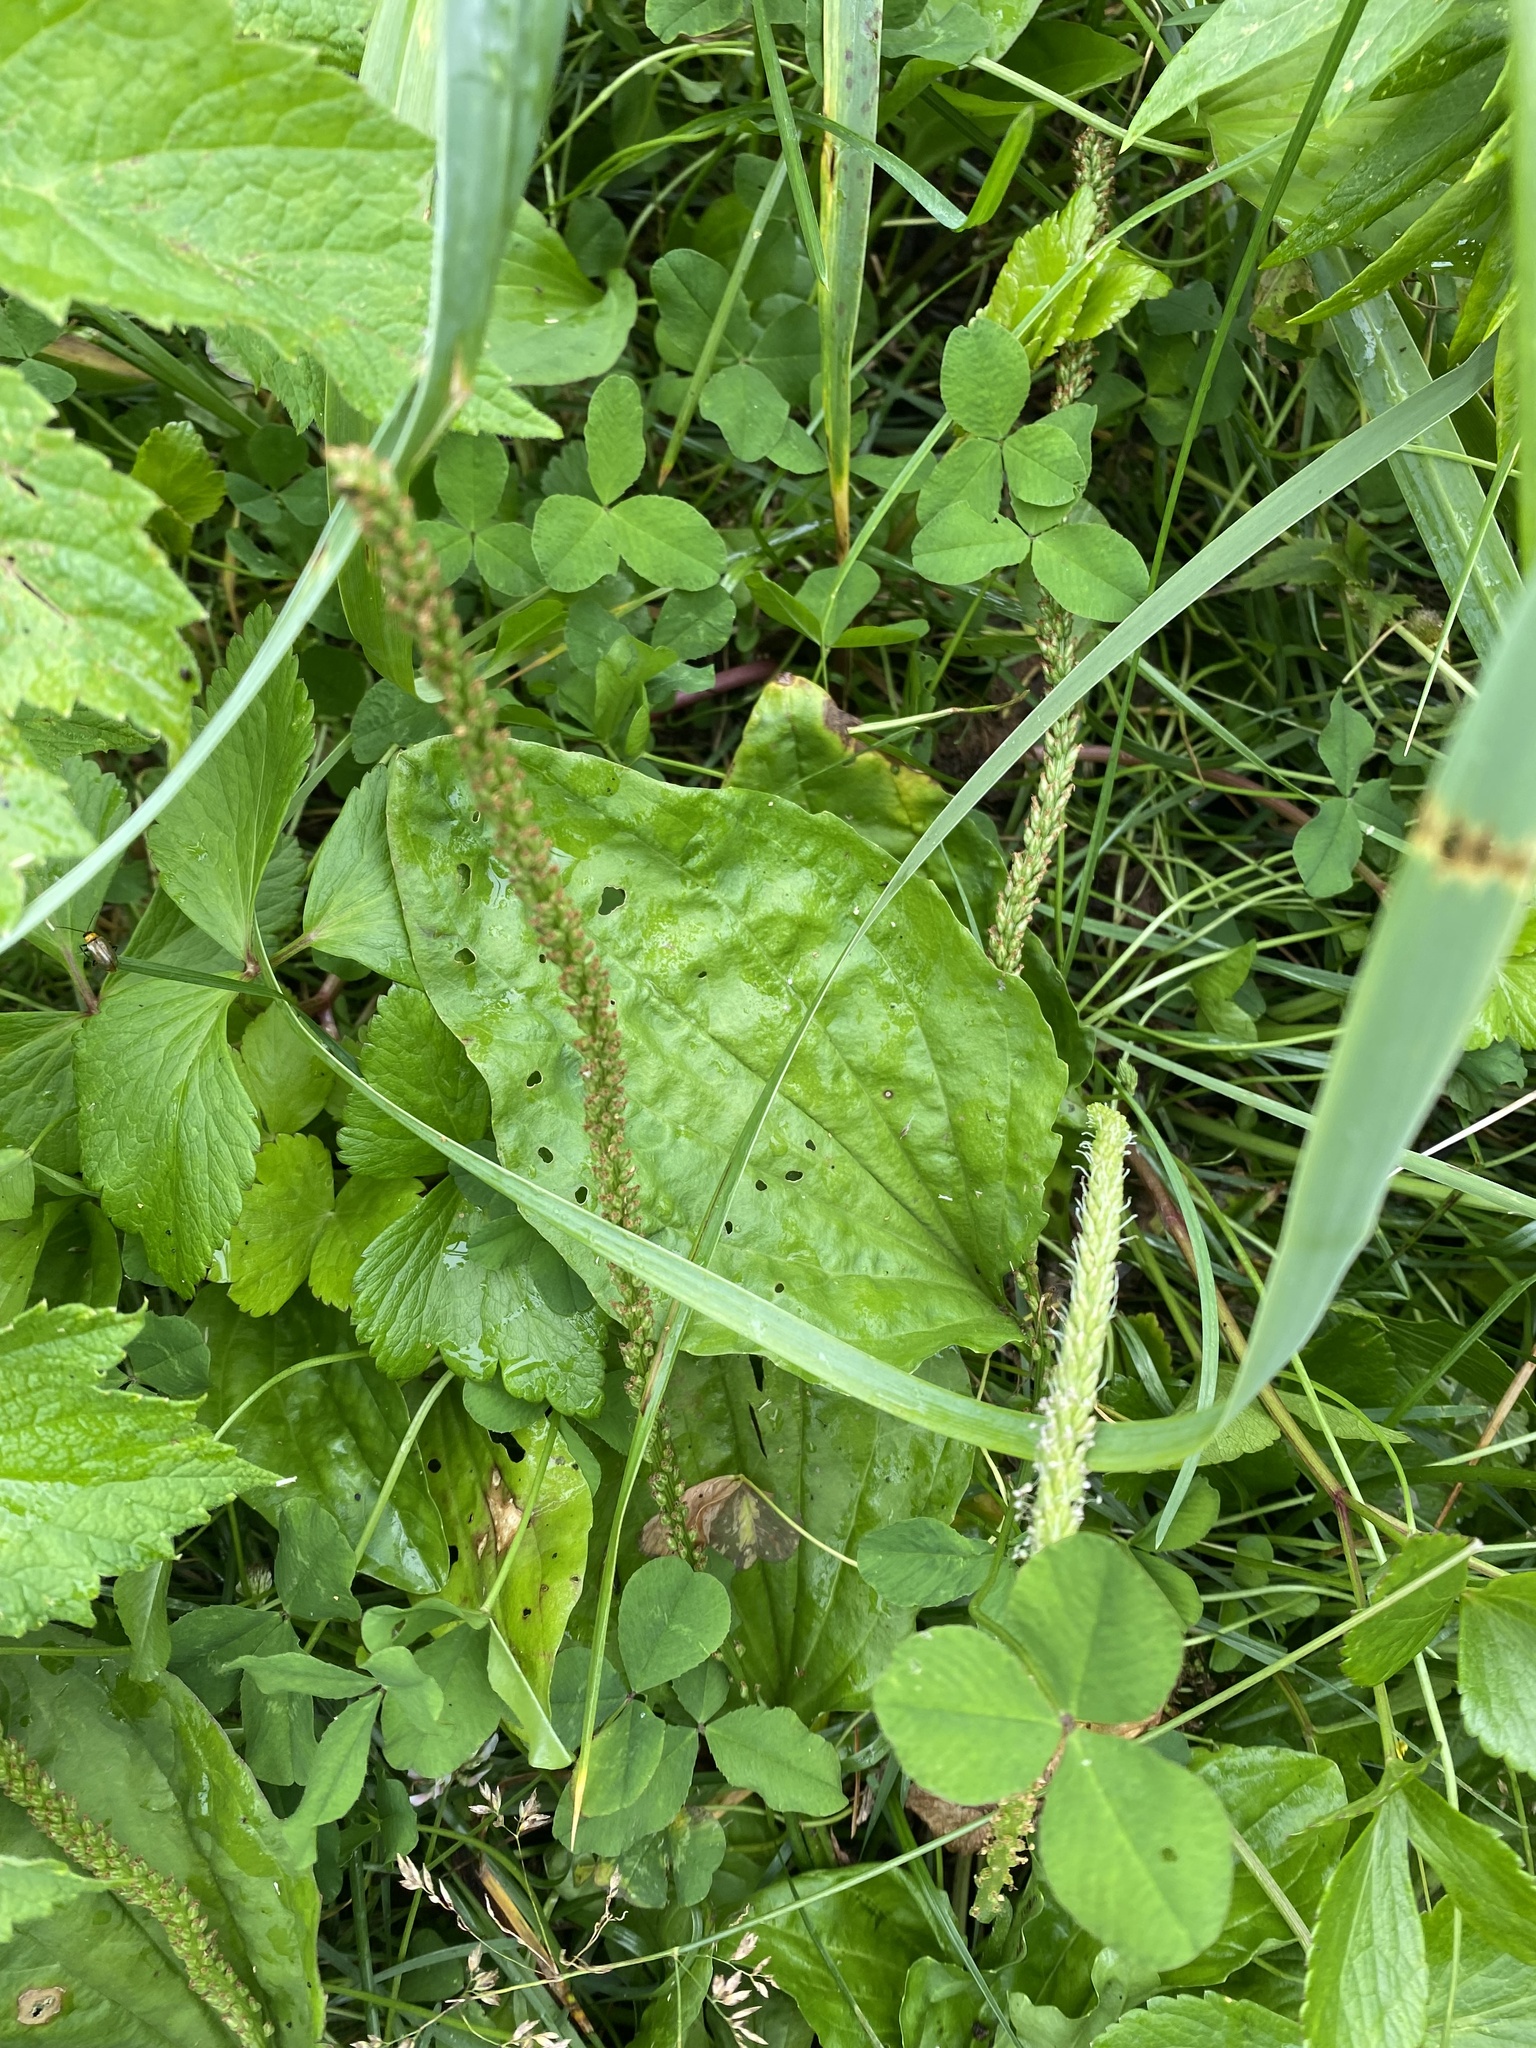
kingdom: Plantae
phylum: Tracheophyta
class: Magnoliopsida
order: Lamiales
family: Plantaginaceae
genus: Plantago
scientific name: Plantago major
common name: Common plantain
